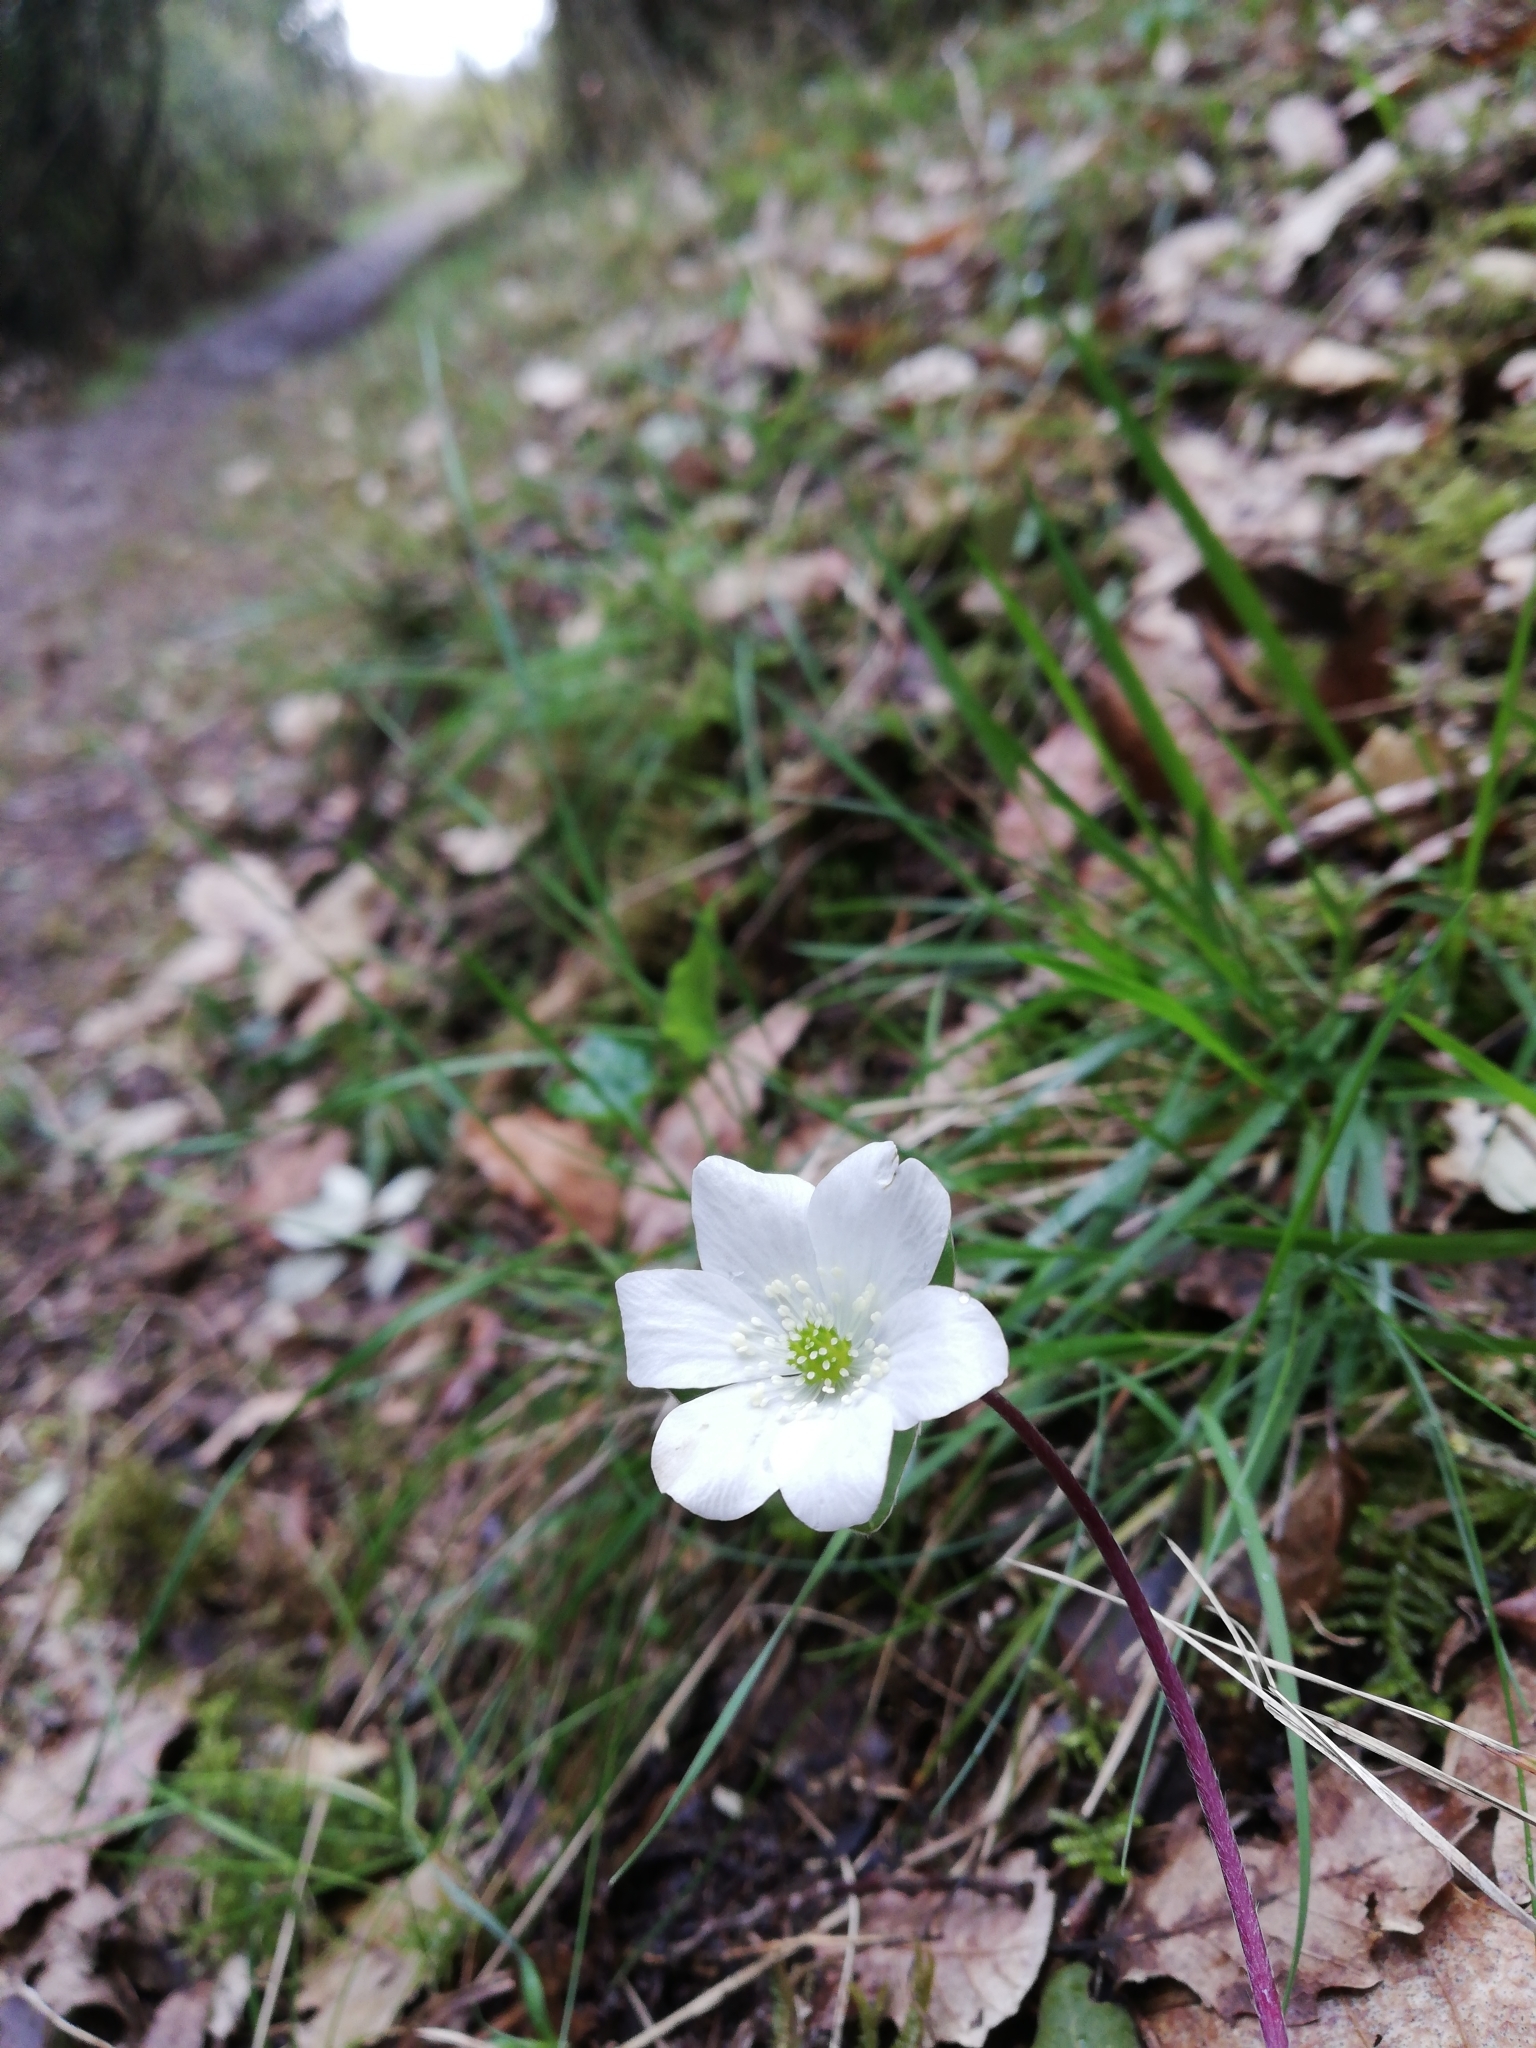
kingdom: Plantae
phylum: Tracheophyta
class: Magnoliopsida
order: Ranunculales
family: Ranunculaceae
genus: Hepatica
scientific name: Hepatica nobilis
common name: Liverleaf
